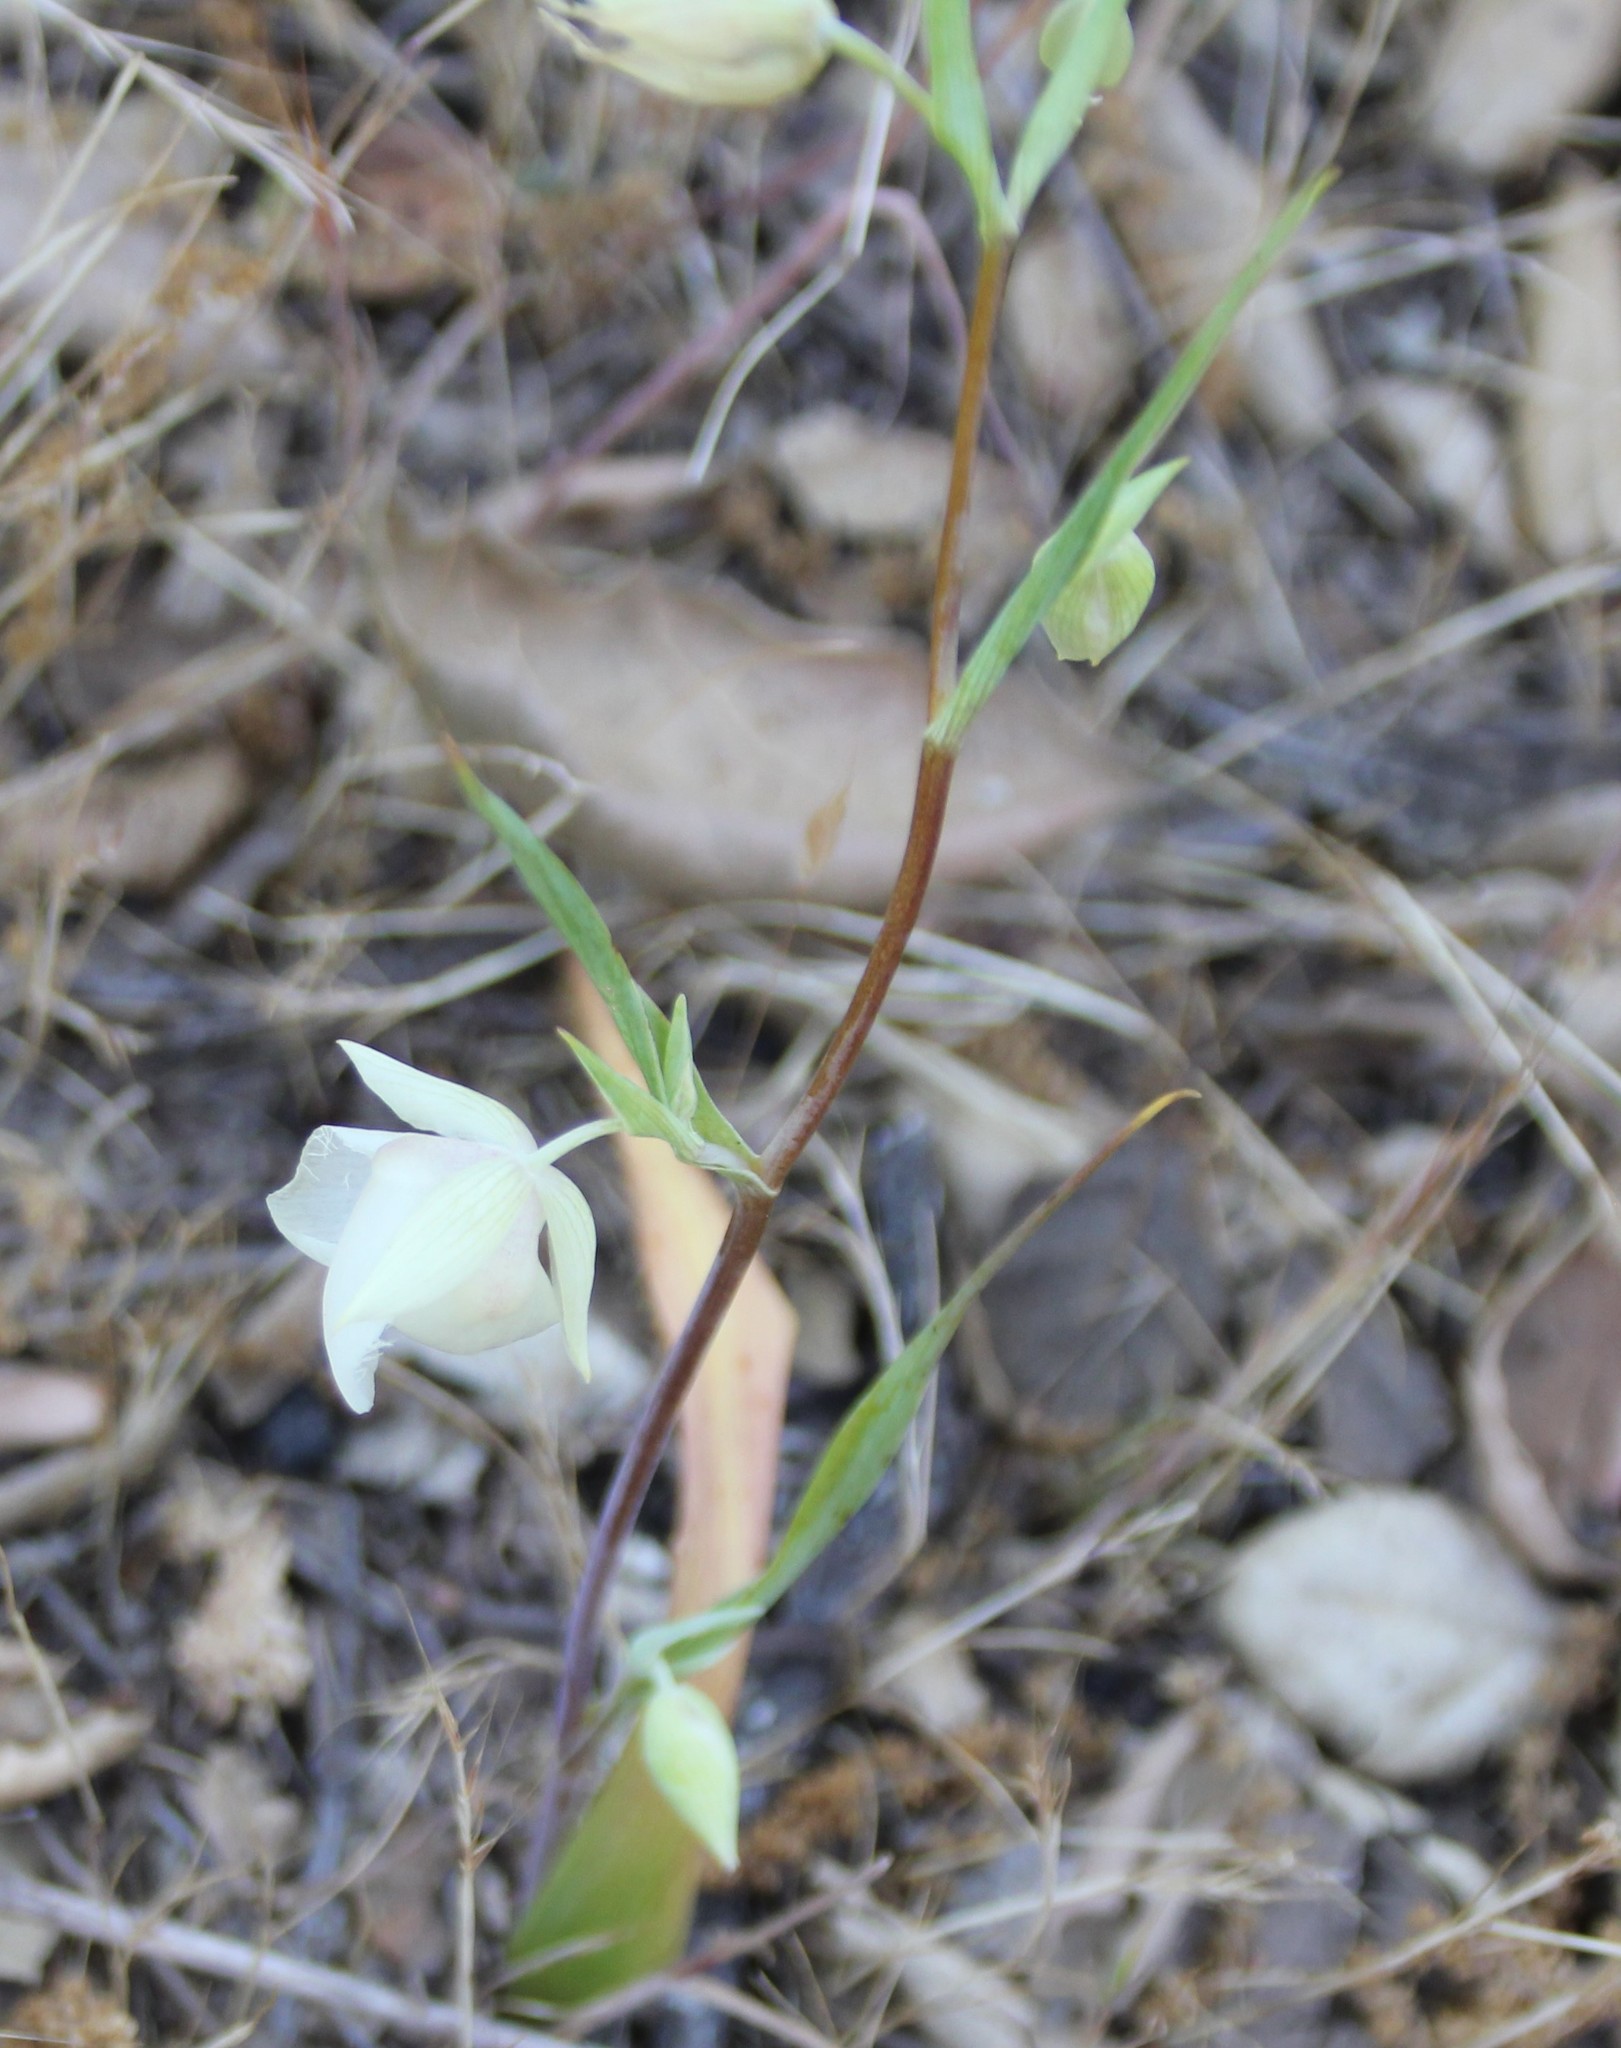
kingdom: Plantae
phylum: Tracheophyta
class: Liliopsida
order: Liliales
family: Liliaceae
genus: Calochortus
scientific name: Calochortus albus
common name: Fairy-lantern
